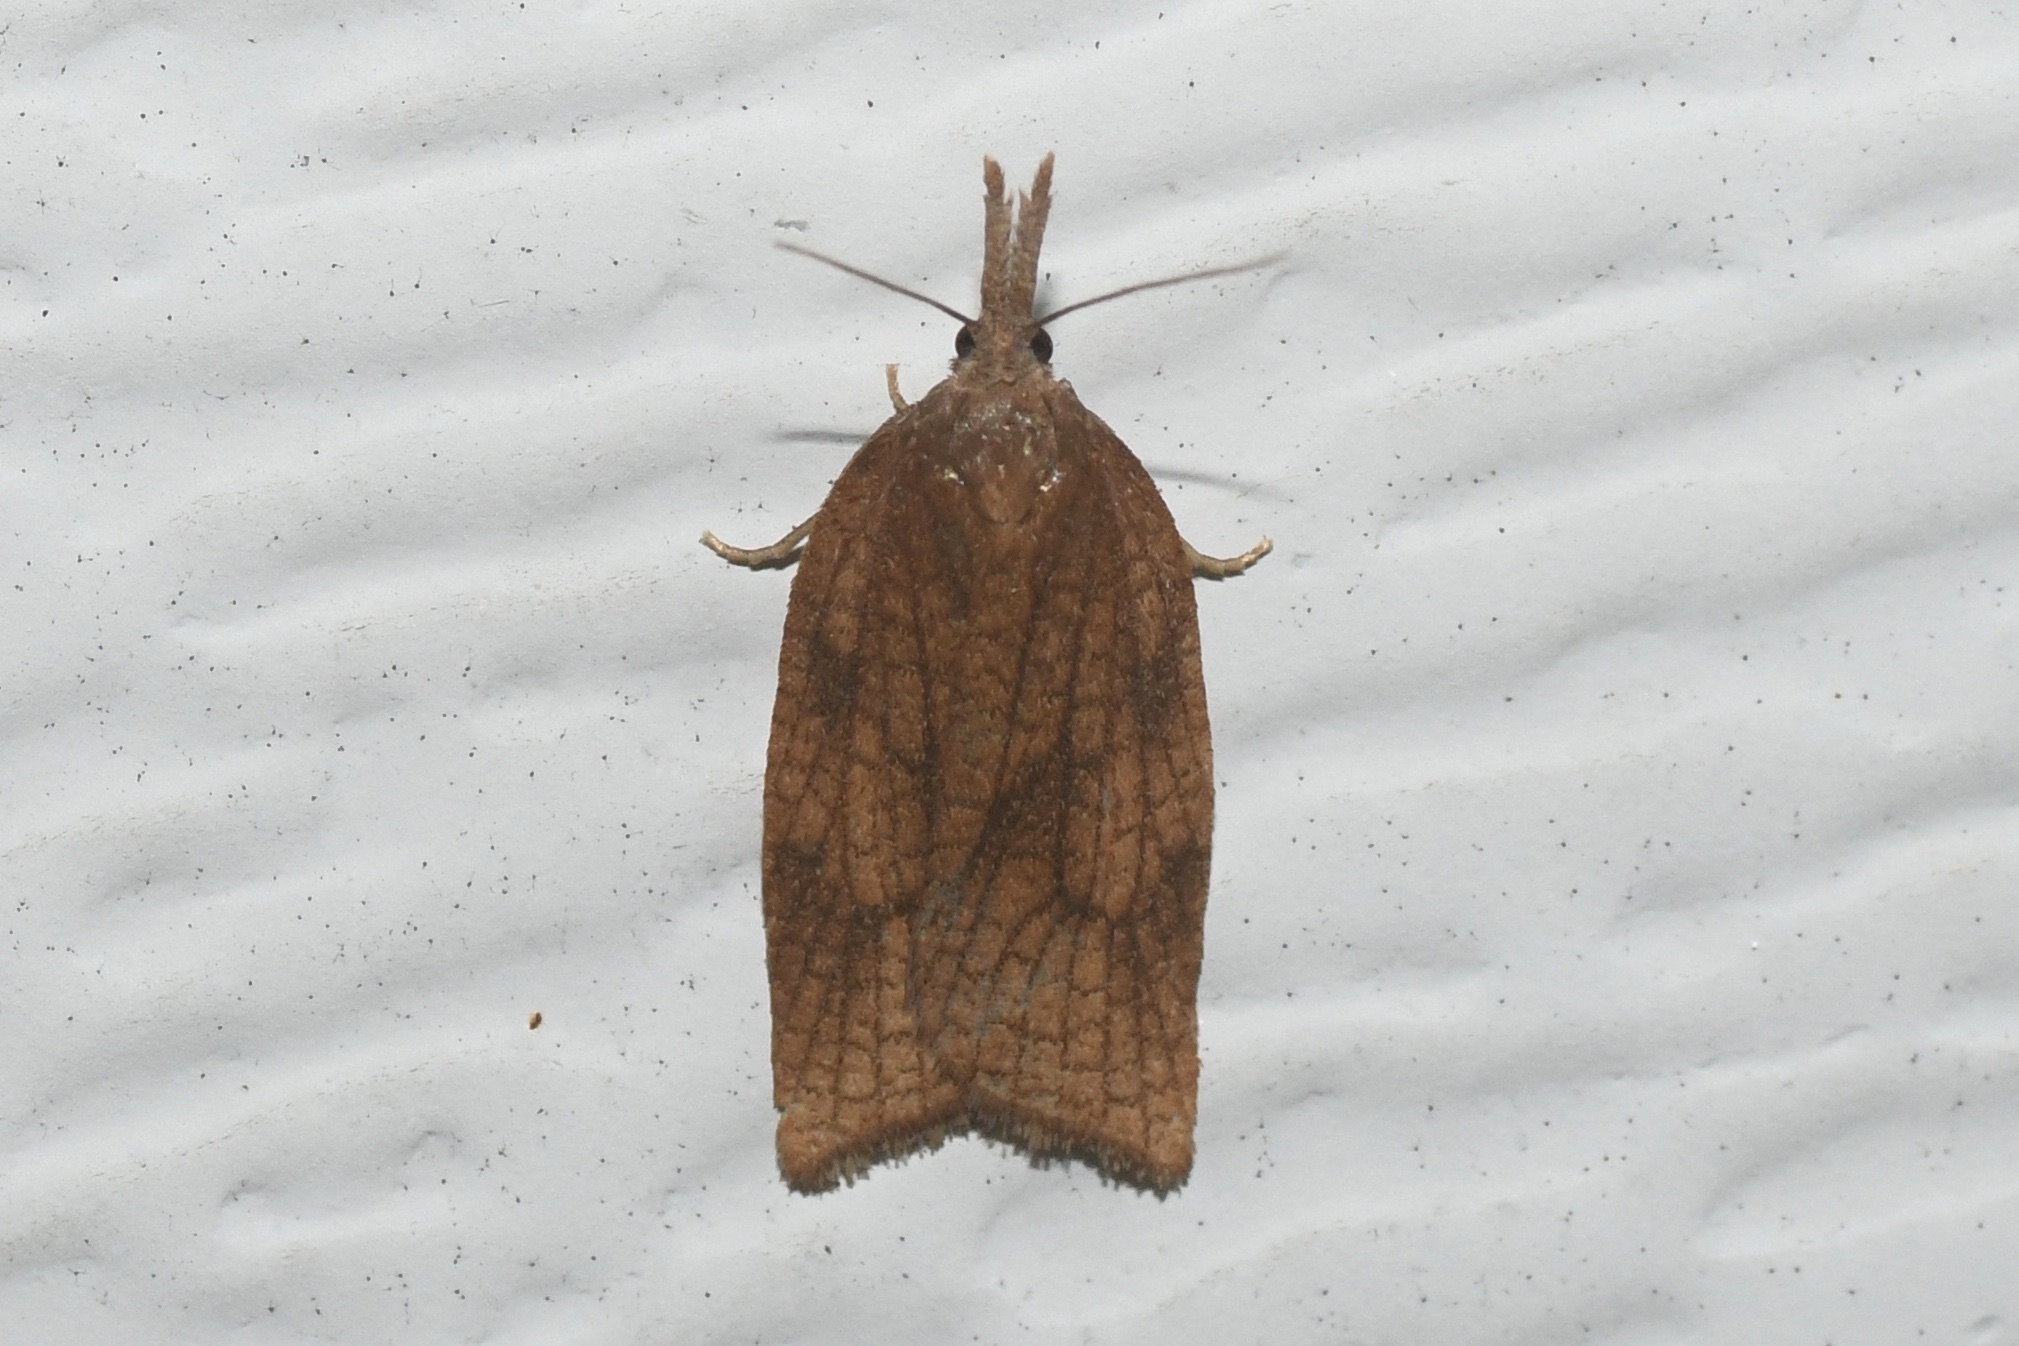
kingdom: Animalia
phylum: Arthropoda
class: Insecta
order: Lepidoptera
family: Tortricidae
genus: Sparganothis
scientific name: Sparganothis xanthoides
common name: Mosaic sparganothis moth
